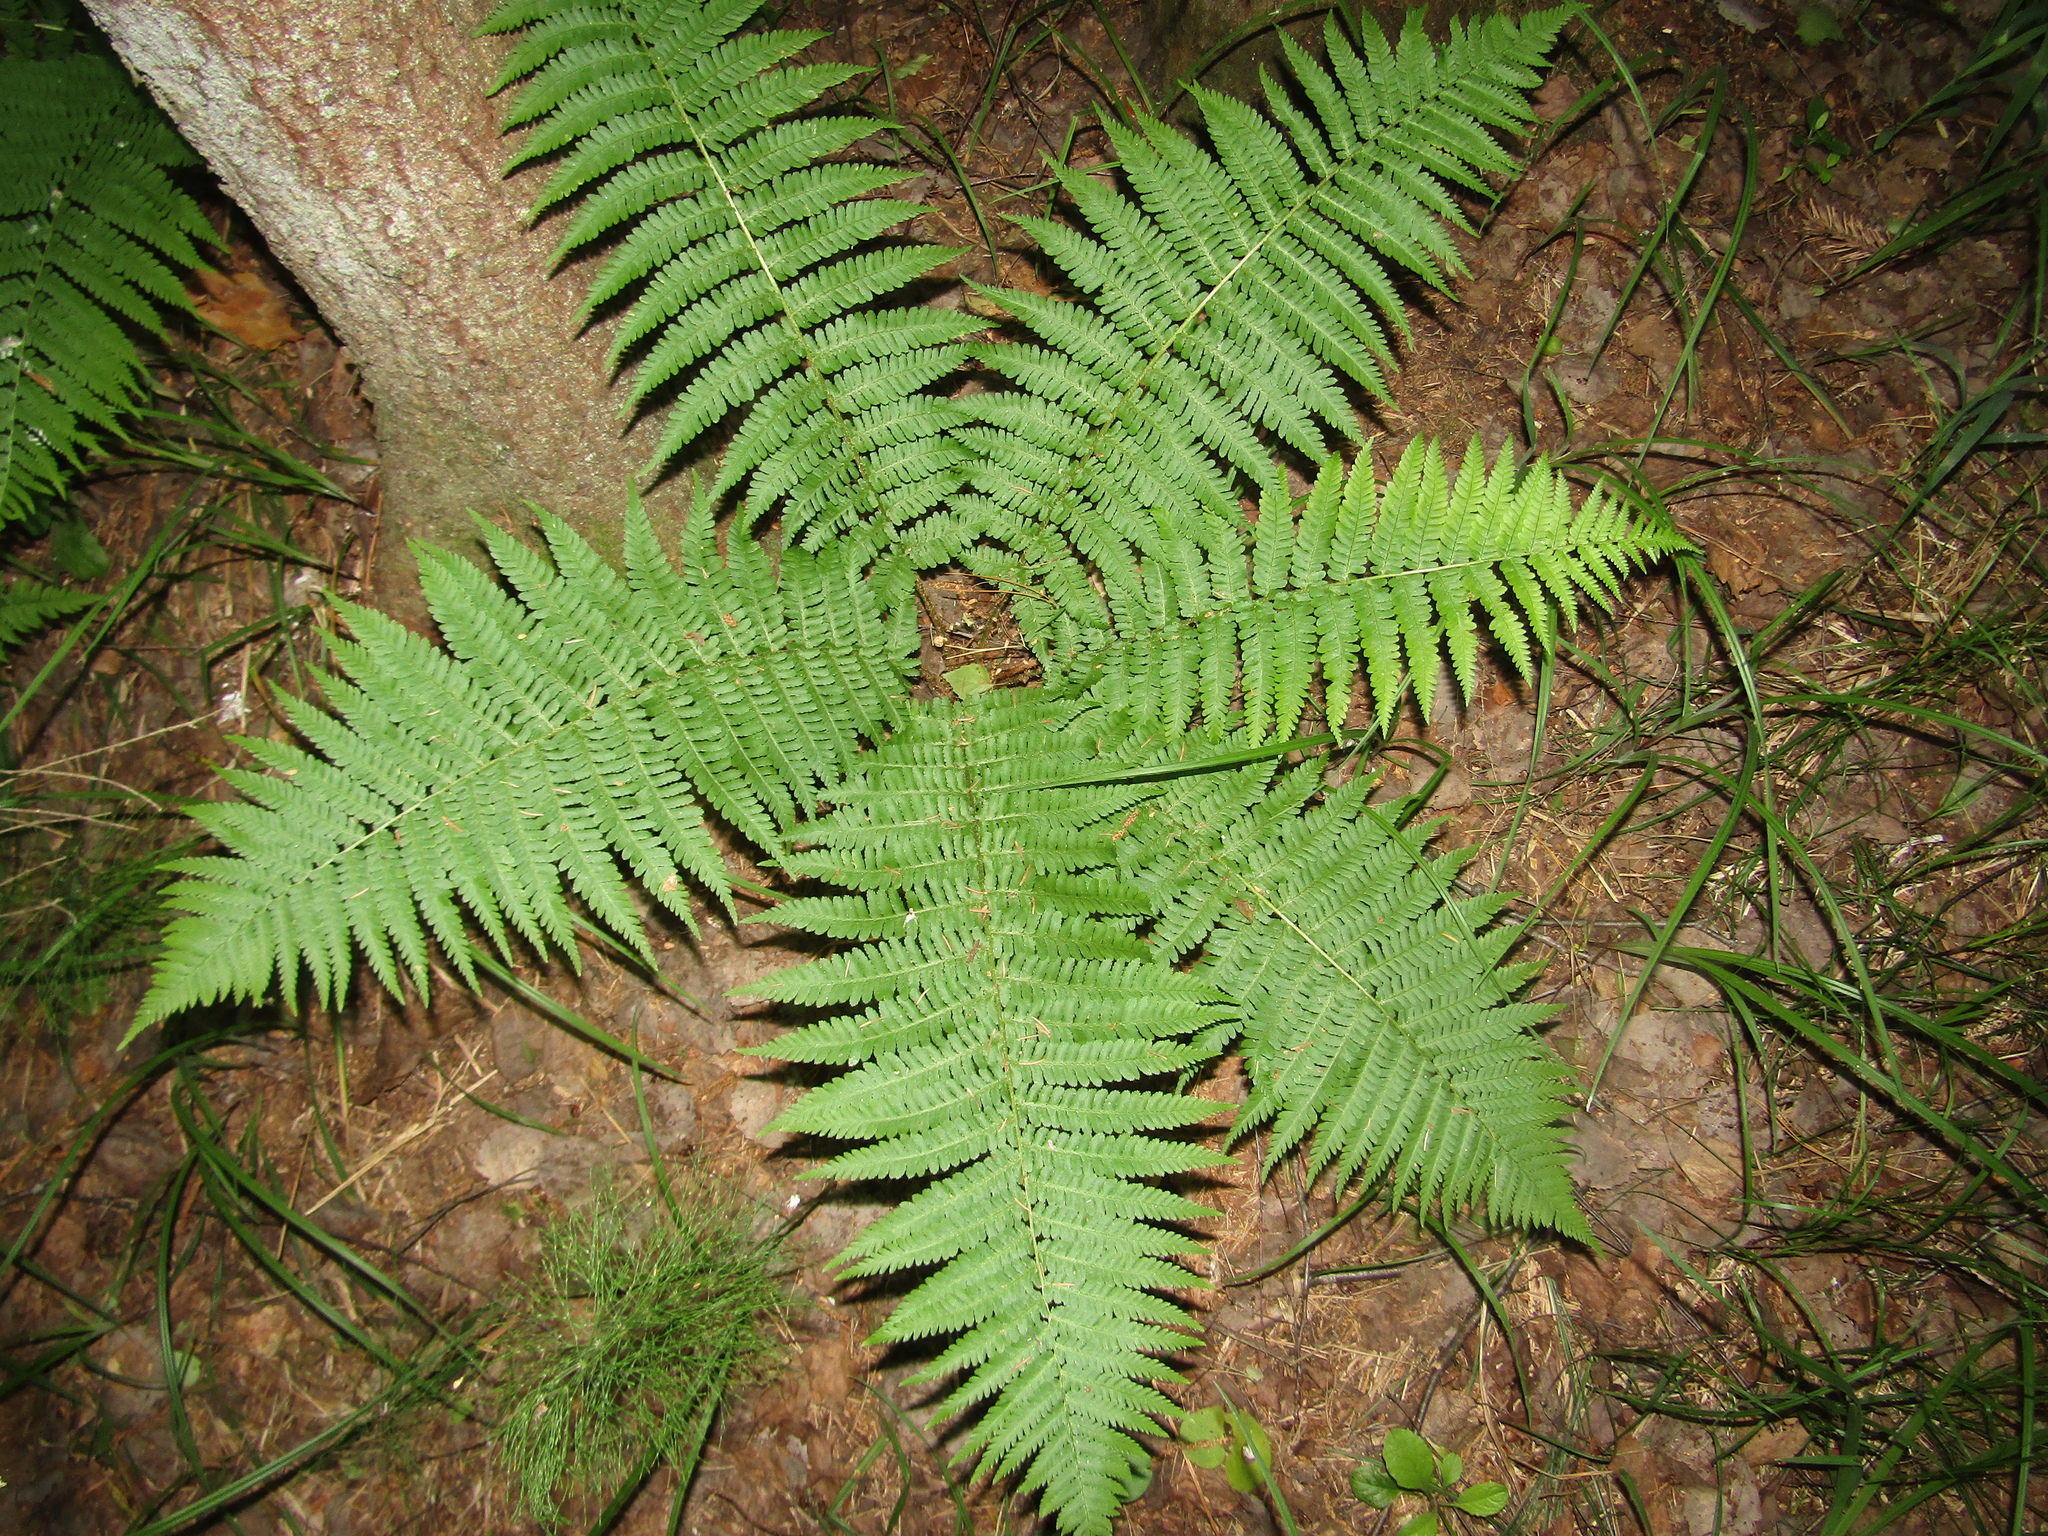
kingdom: Plantae
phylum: Tracheophyta
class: Polypodiopsida
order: Polypodiales
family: Dryopteridaceae
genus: Dryopteris
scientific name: Dryopteris filix-mas
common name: Male fern
